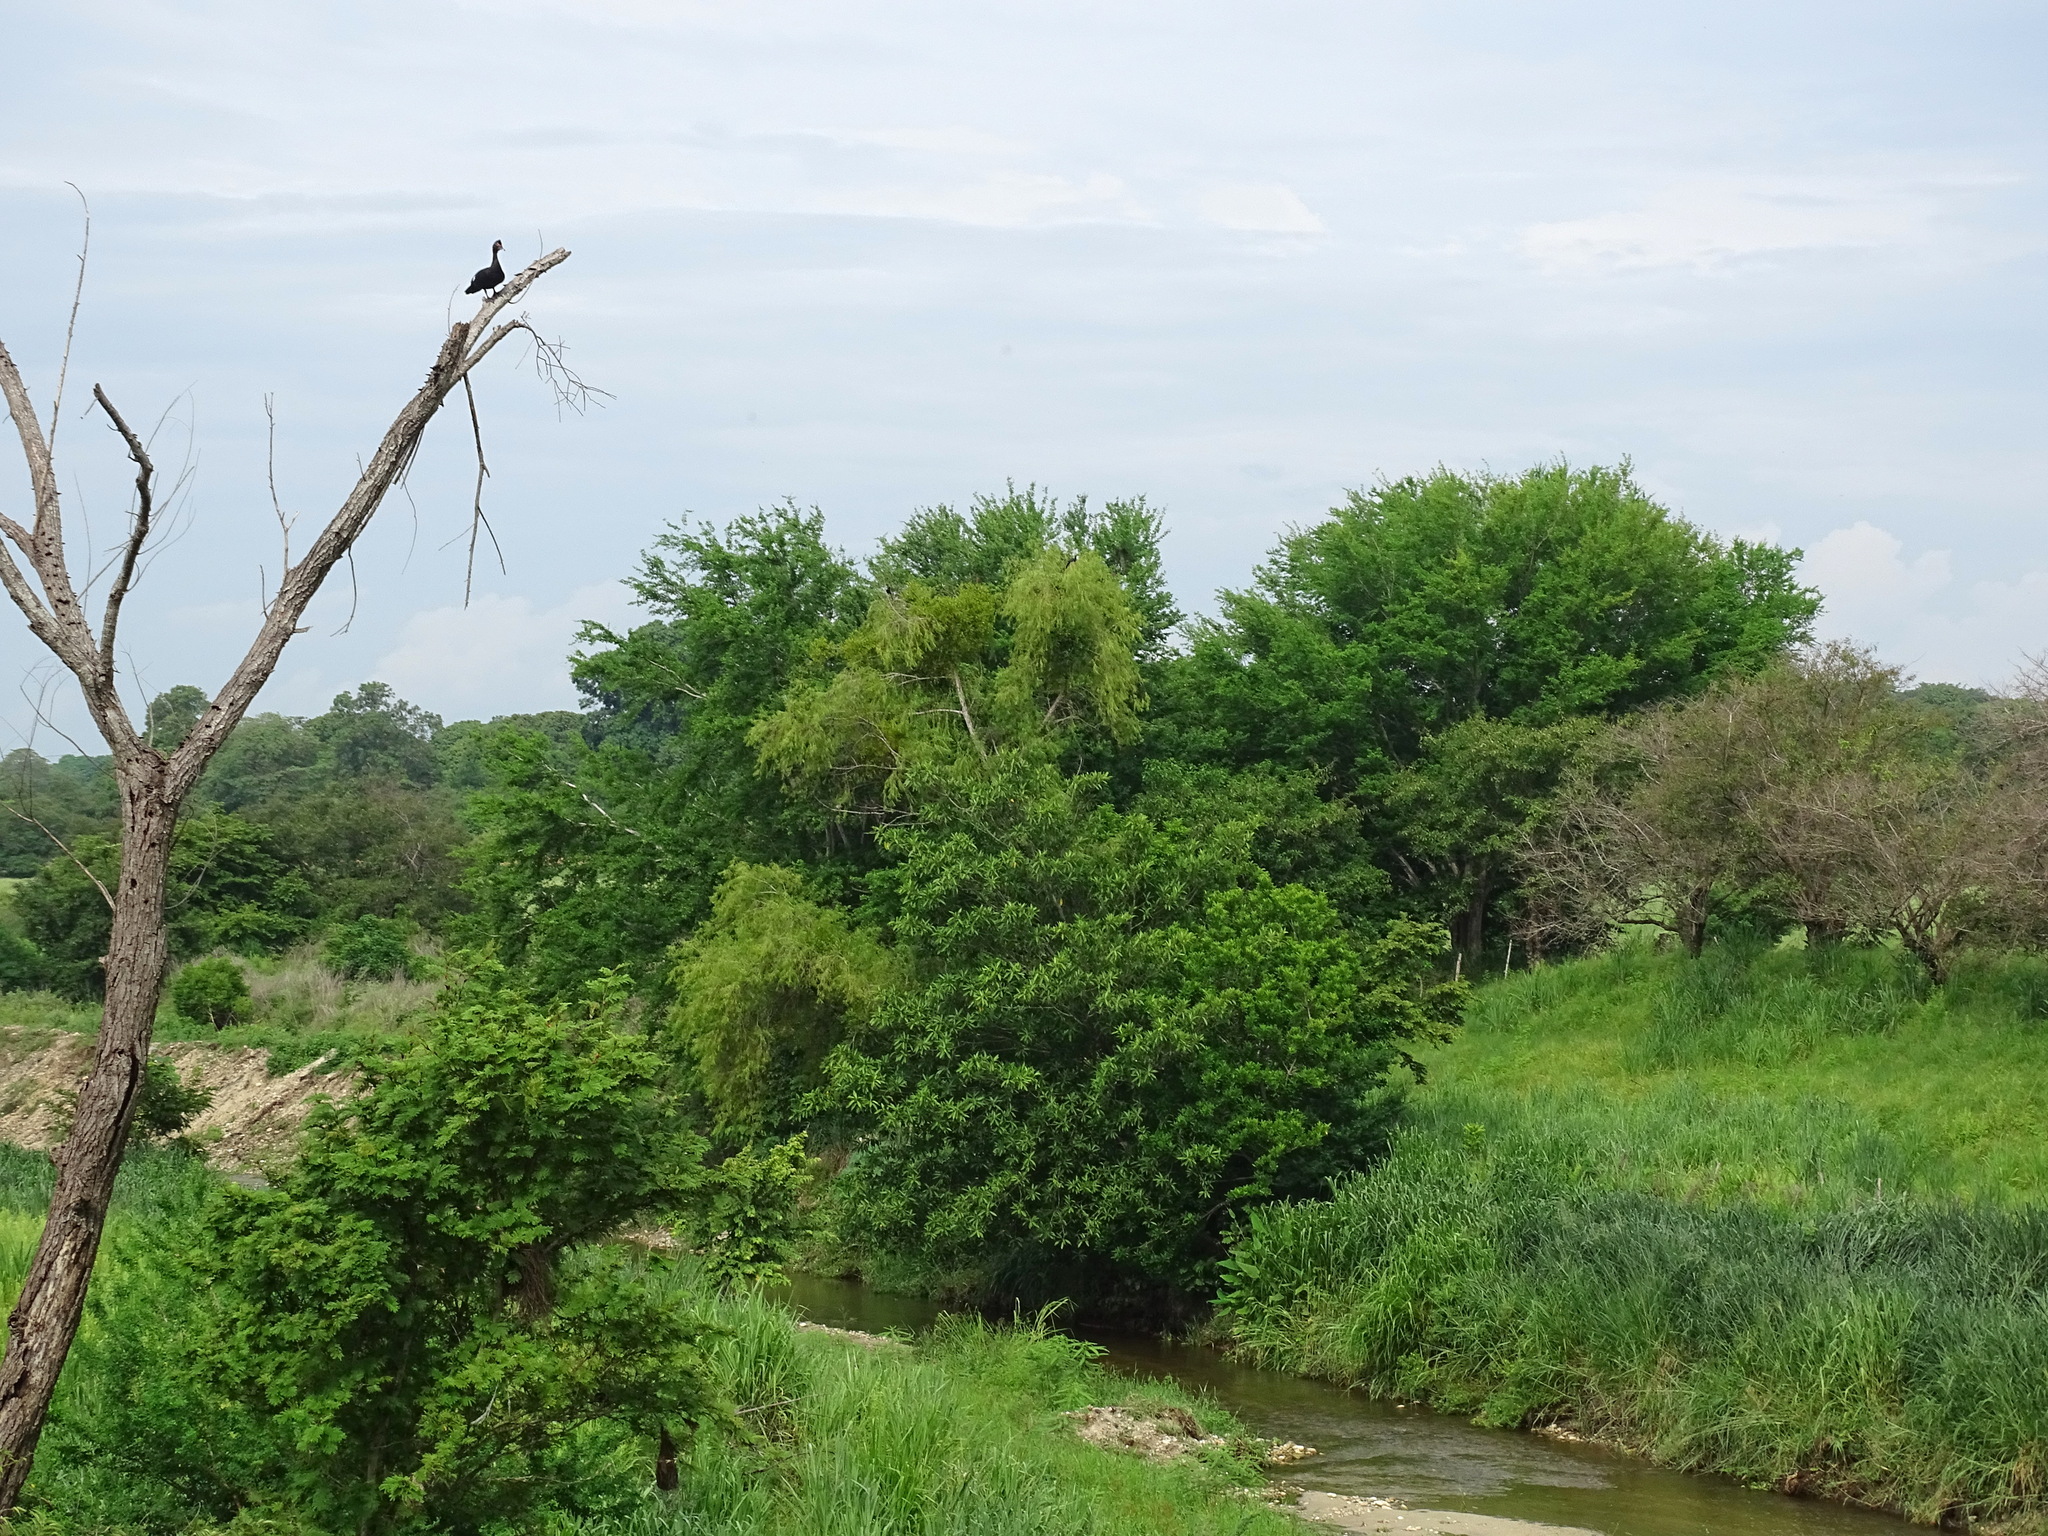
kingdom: Animalia
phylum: Chordata
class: Aves
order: Anseriformes
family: Anatidae
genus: Cairina
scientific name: Cairina moschata
